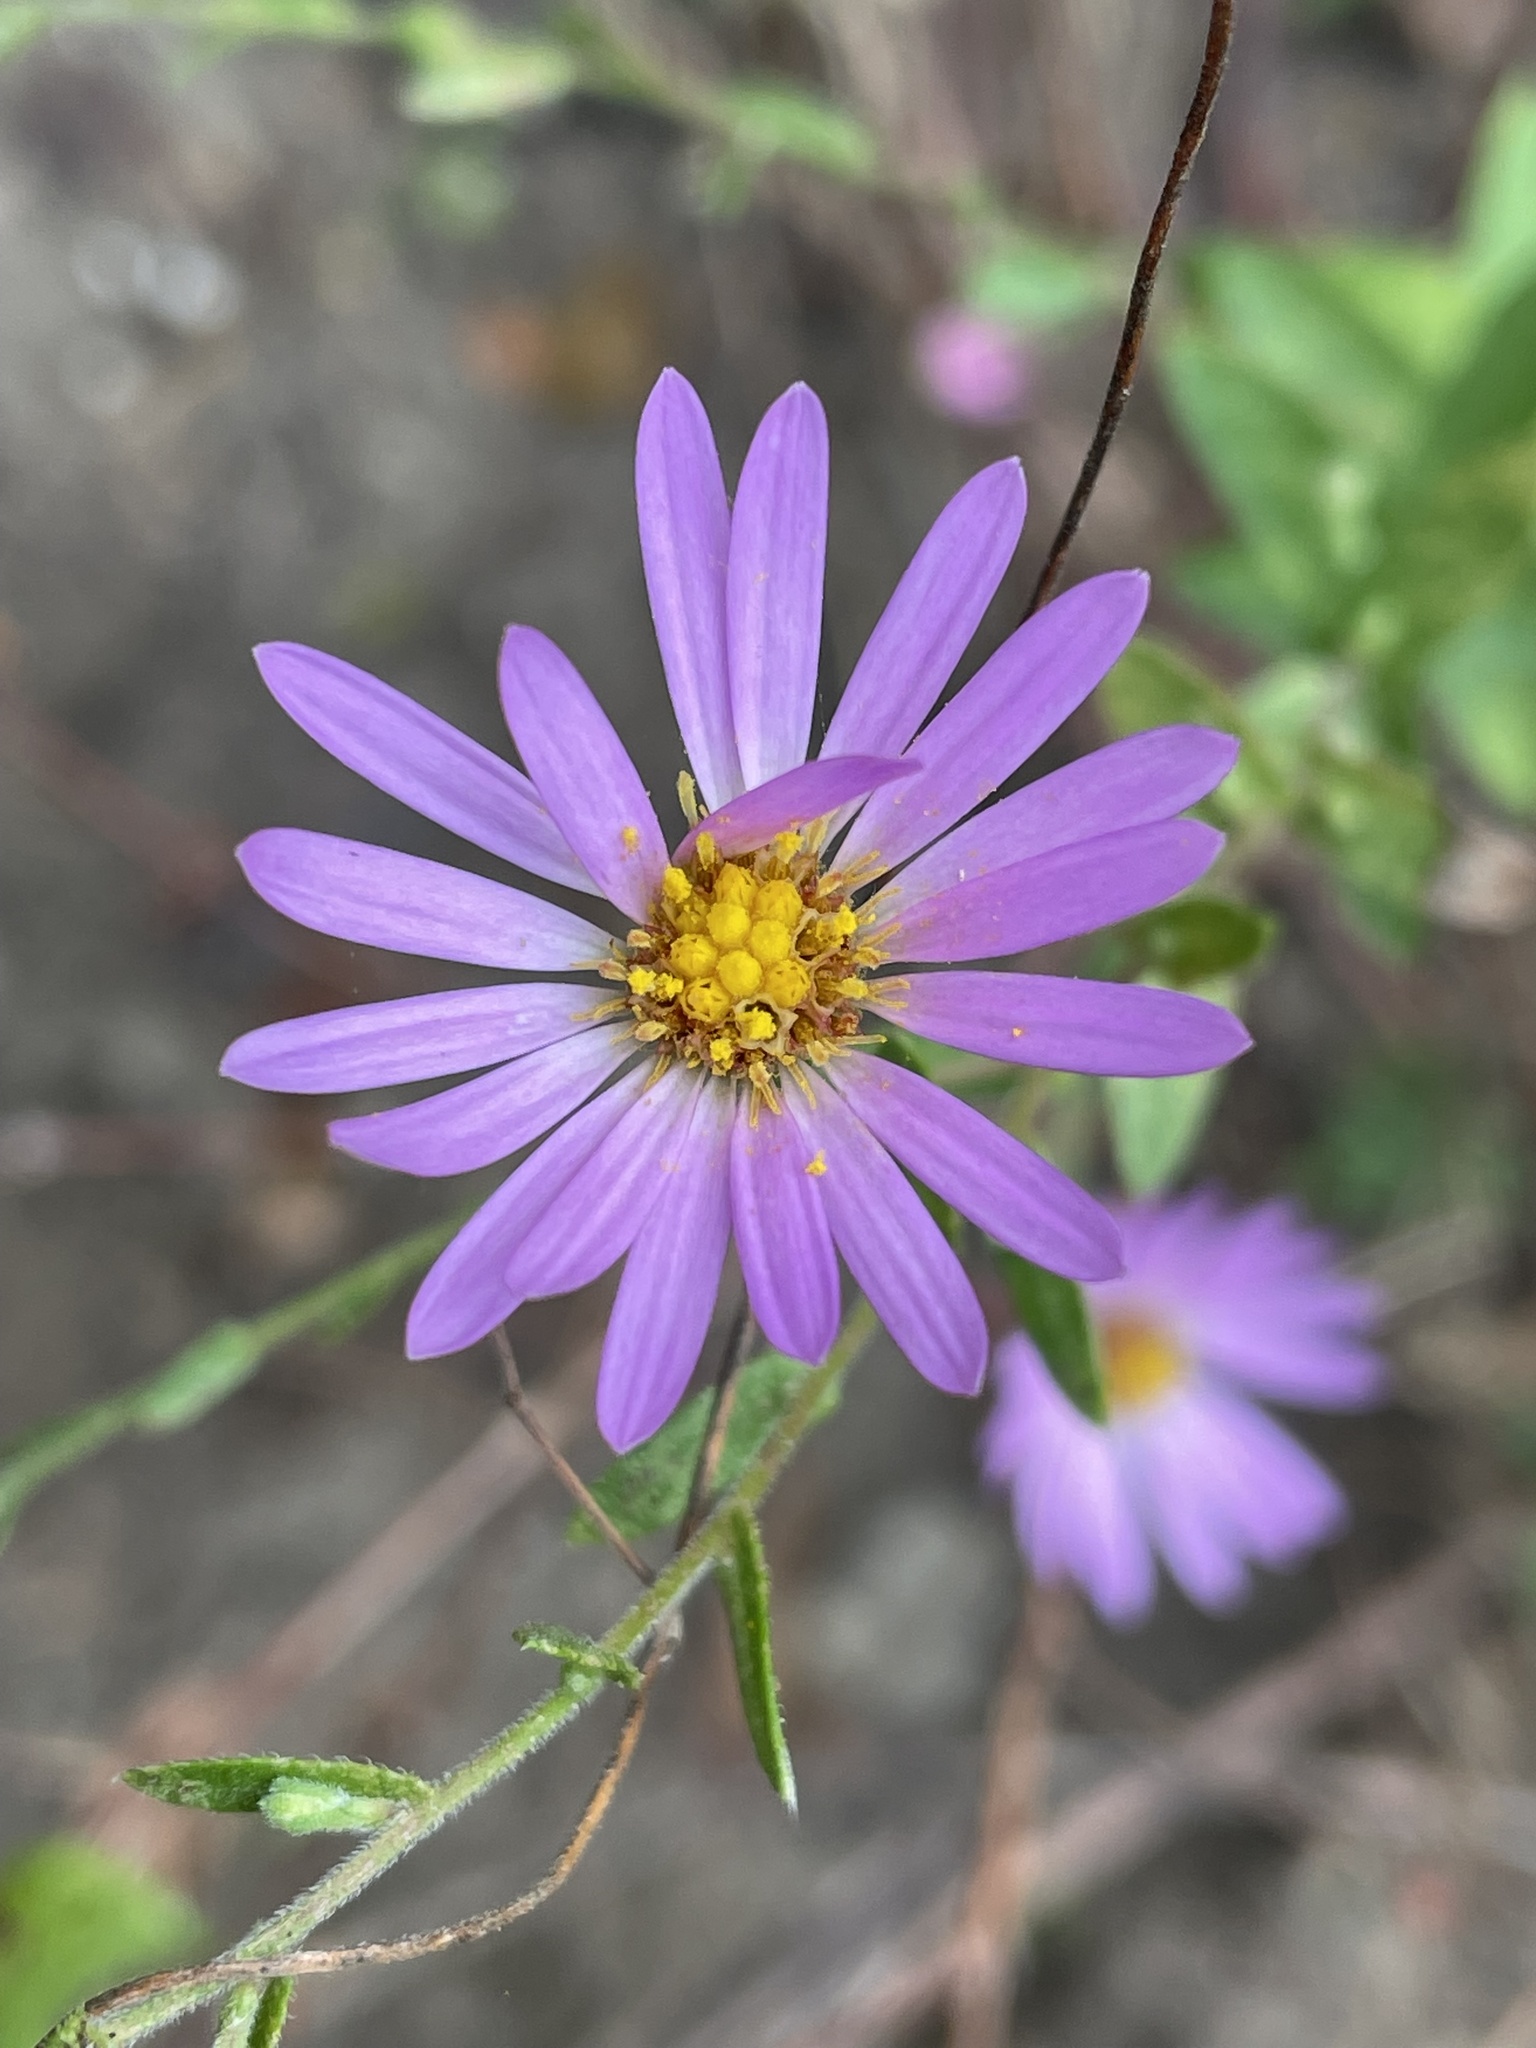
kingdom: Plantae
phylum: Tracheophyta
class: Magnoliopsida
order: Asterales
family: Asteraceae
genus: Symphyotrichum
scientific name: Symphyotrichum patens
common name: Late purple aster
